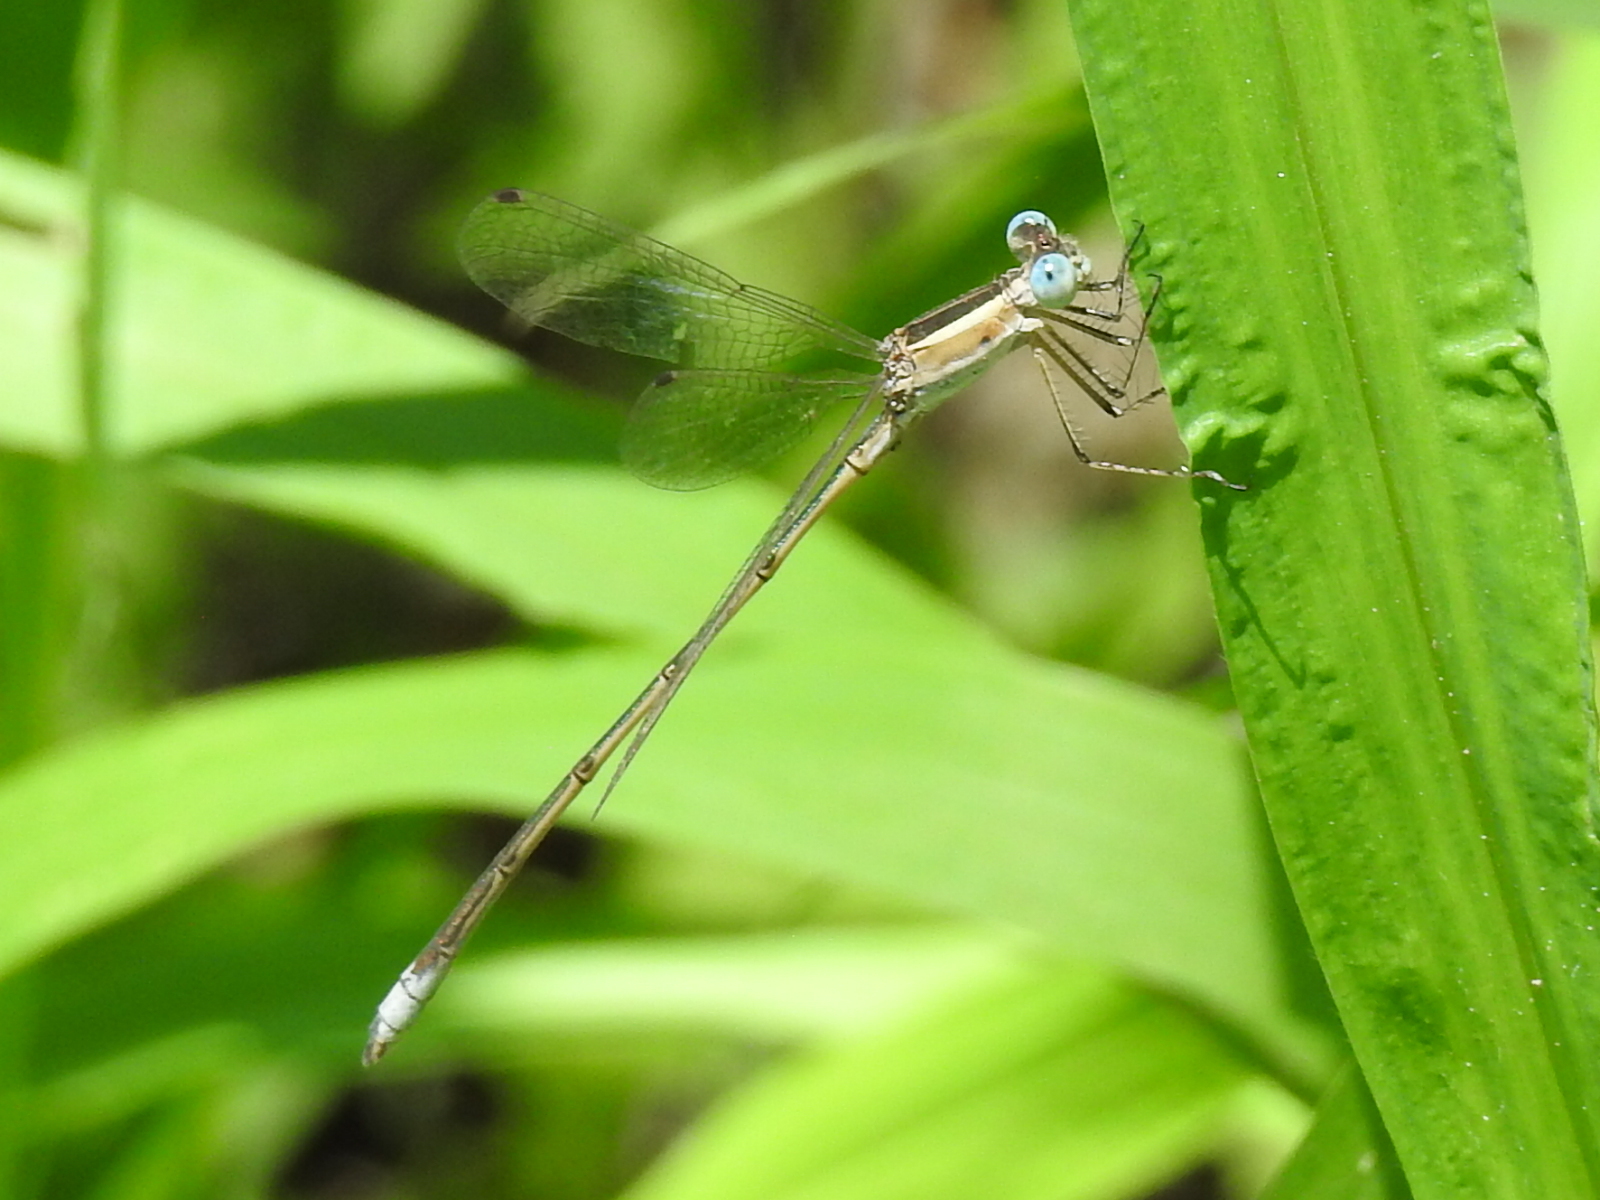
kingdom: Animalia
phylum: Arthropoda
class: Insecta
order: Odonata
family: Lestidae
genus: Lestes
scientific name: Lestes alacer
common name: Plateau spreadwing
